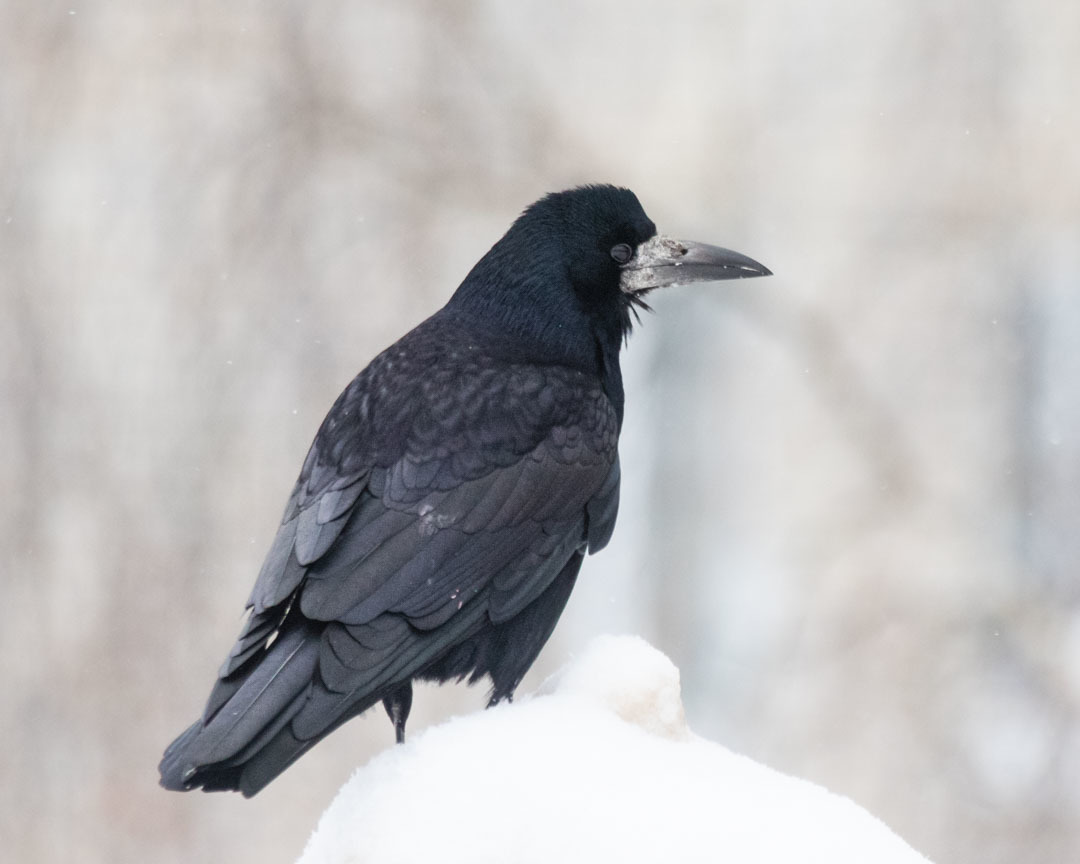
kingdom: Animalia
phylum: Chordata
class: Aves
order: Passeriformes
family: Corvidae
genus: Corvus
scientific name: Corvus frugilegus
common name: Rook
